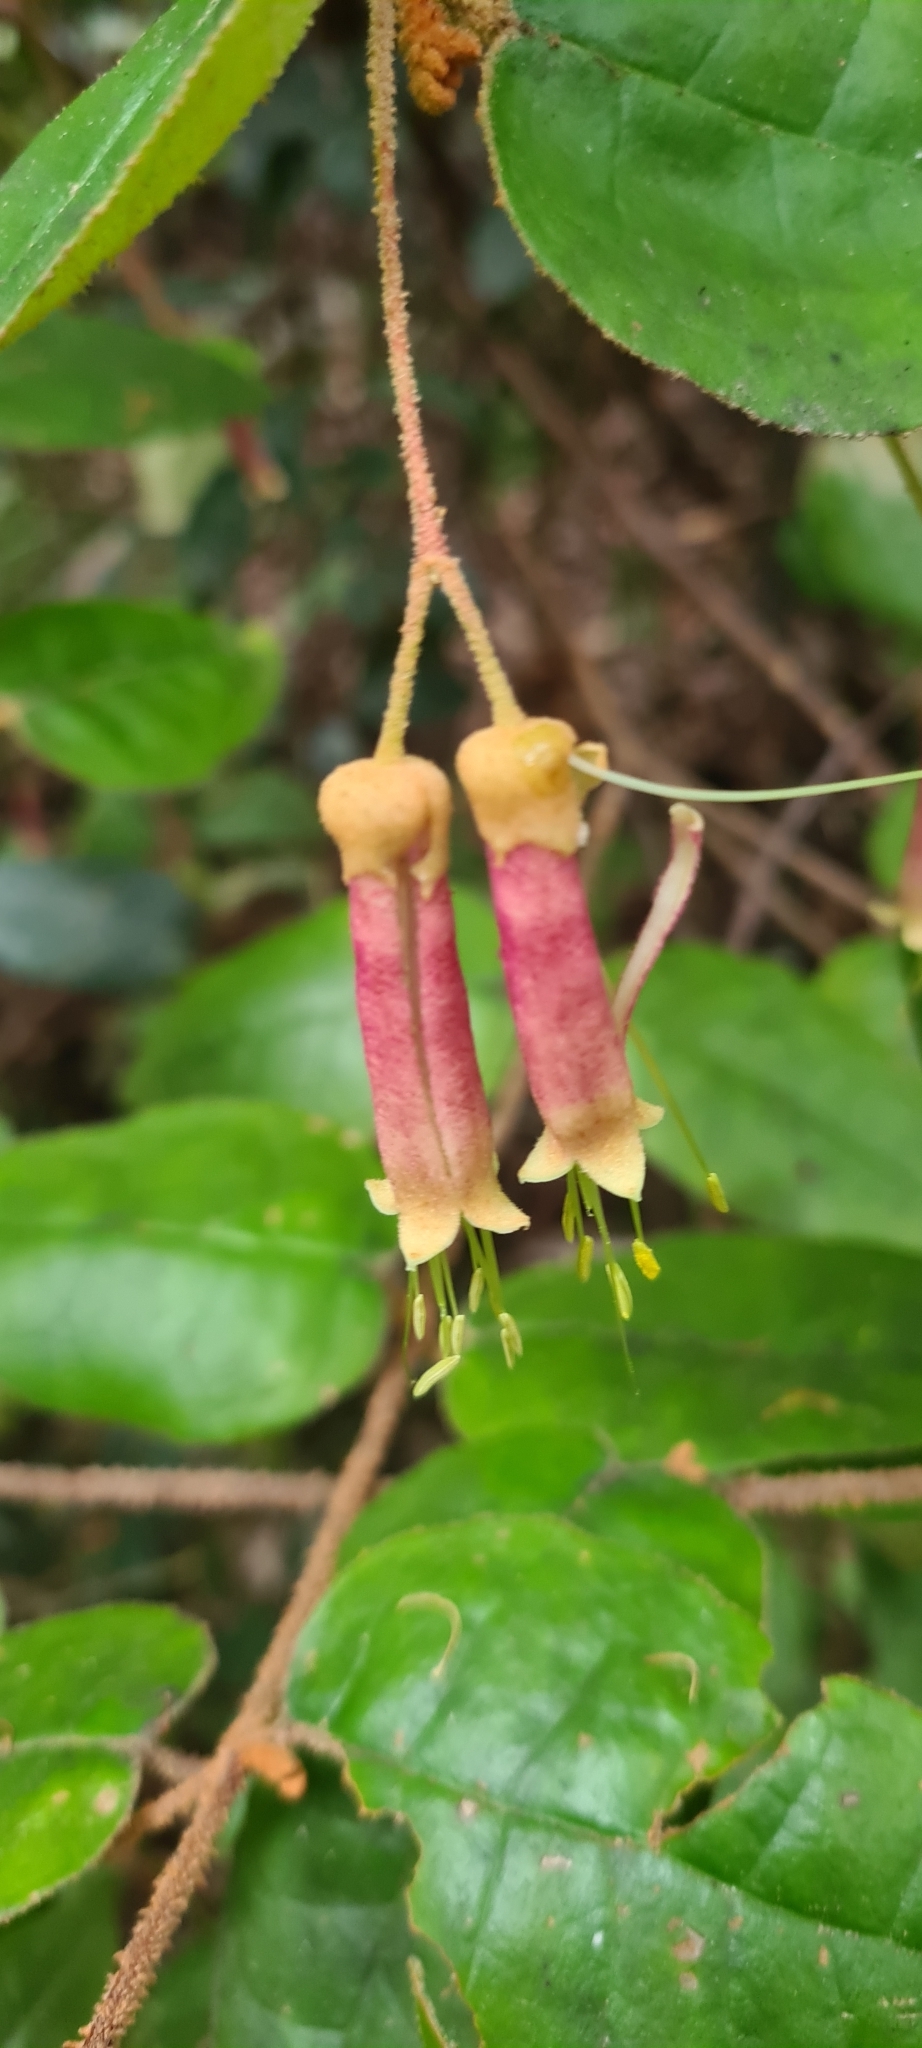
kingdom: Plantae
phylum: Tracheophyta
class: Magnoliopsida
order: Sapindales
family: Rutaceae
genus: Correa
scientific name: Correa lawrenceana
